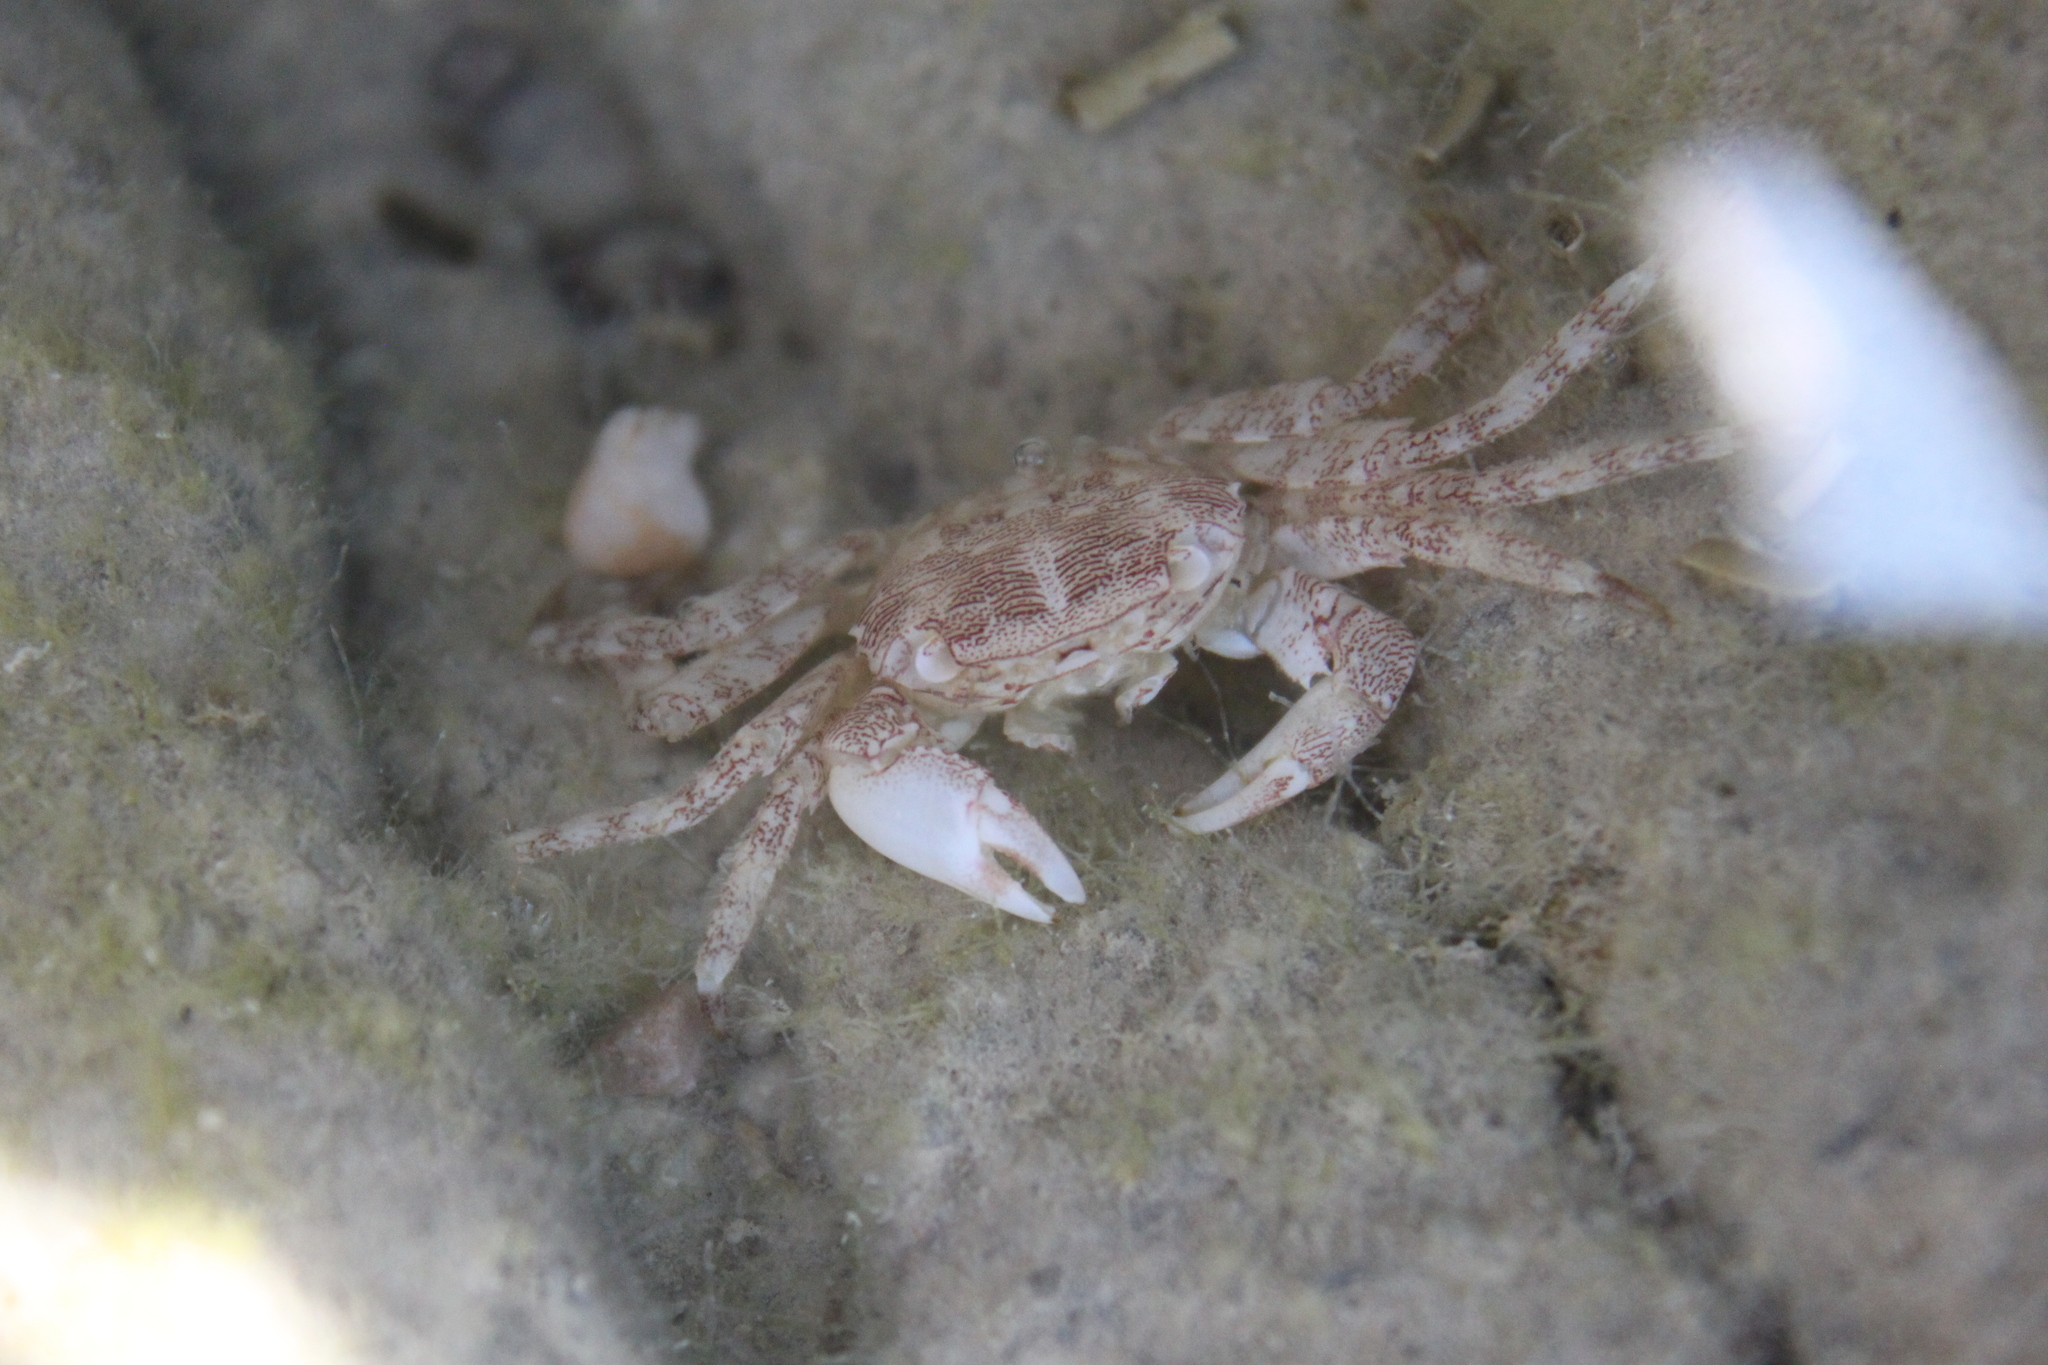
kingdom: Animalia
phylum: Arthropoda
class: Malacostraca
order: Decapoda
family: Grapsidae
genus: Pachygrapsus
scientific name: Pachygrapsus marmoratus
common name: Marbled rock crab
